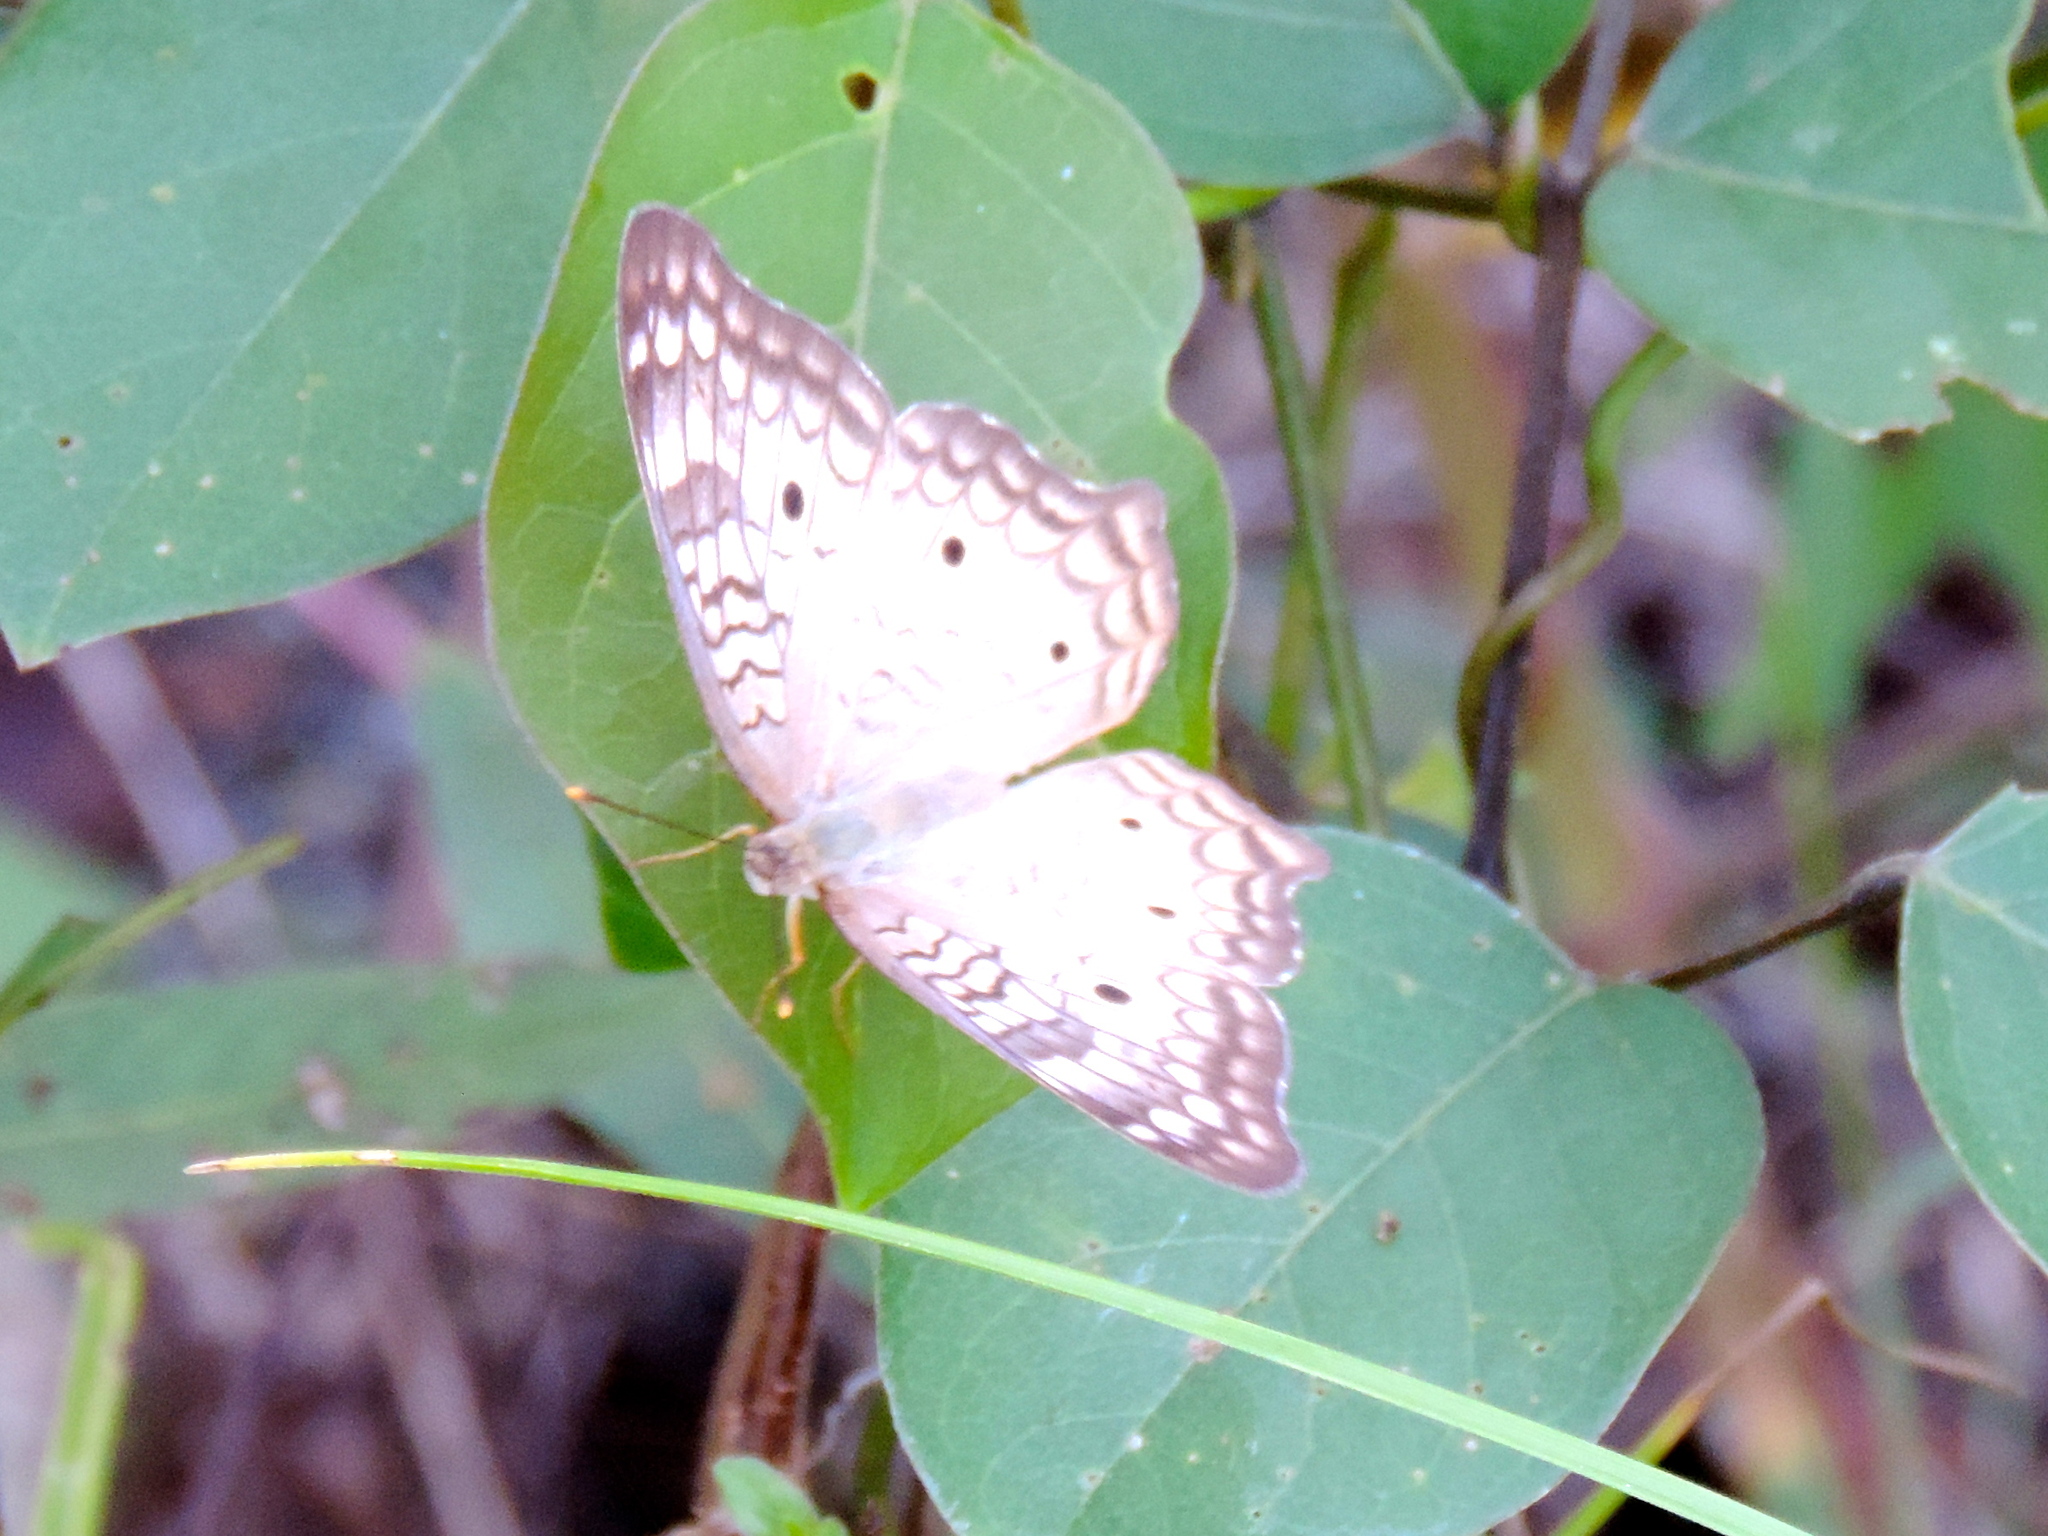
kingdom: Animalia
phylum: Arthropoda
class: Insecta
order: Lepidoptera
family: Nymphalidae
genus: Anartia
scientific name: Anartia jatrophae
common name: White peacock
